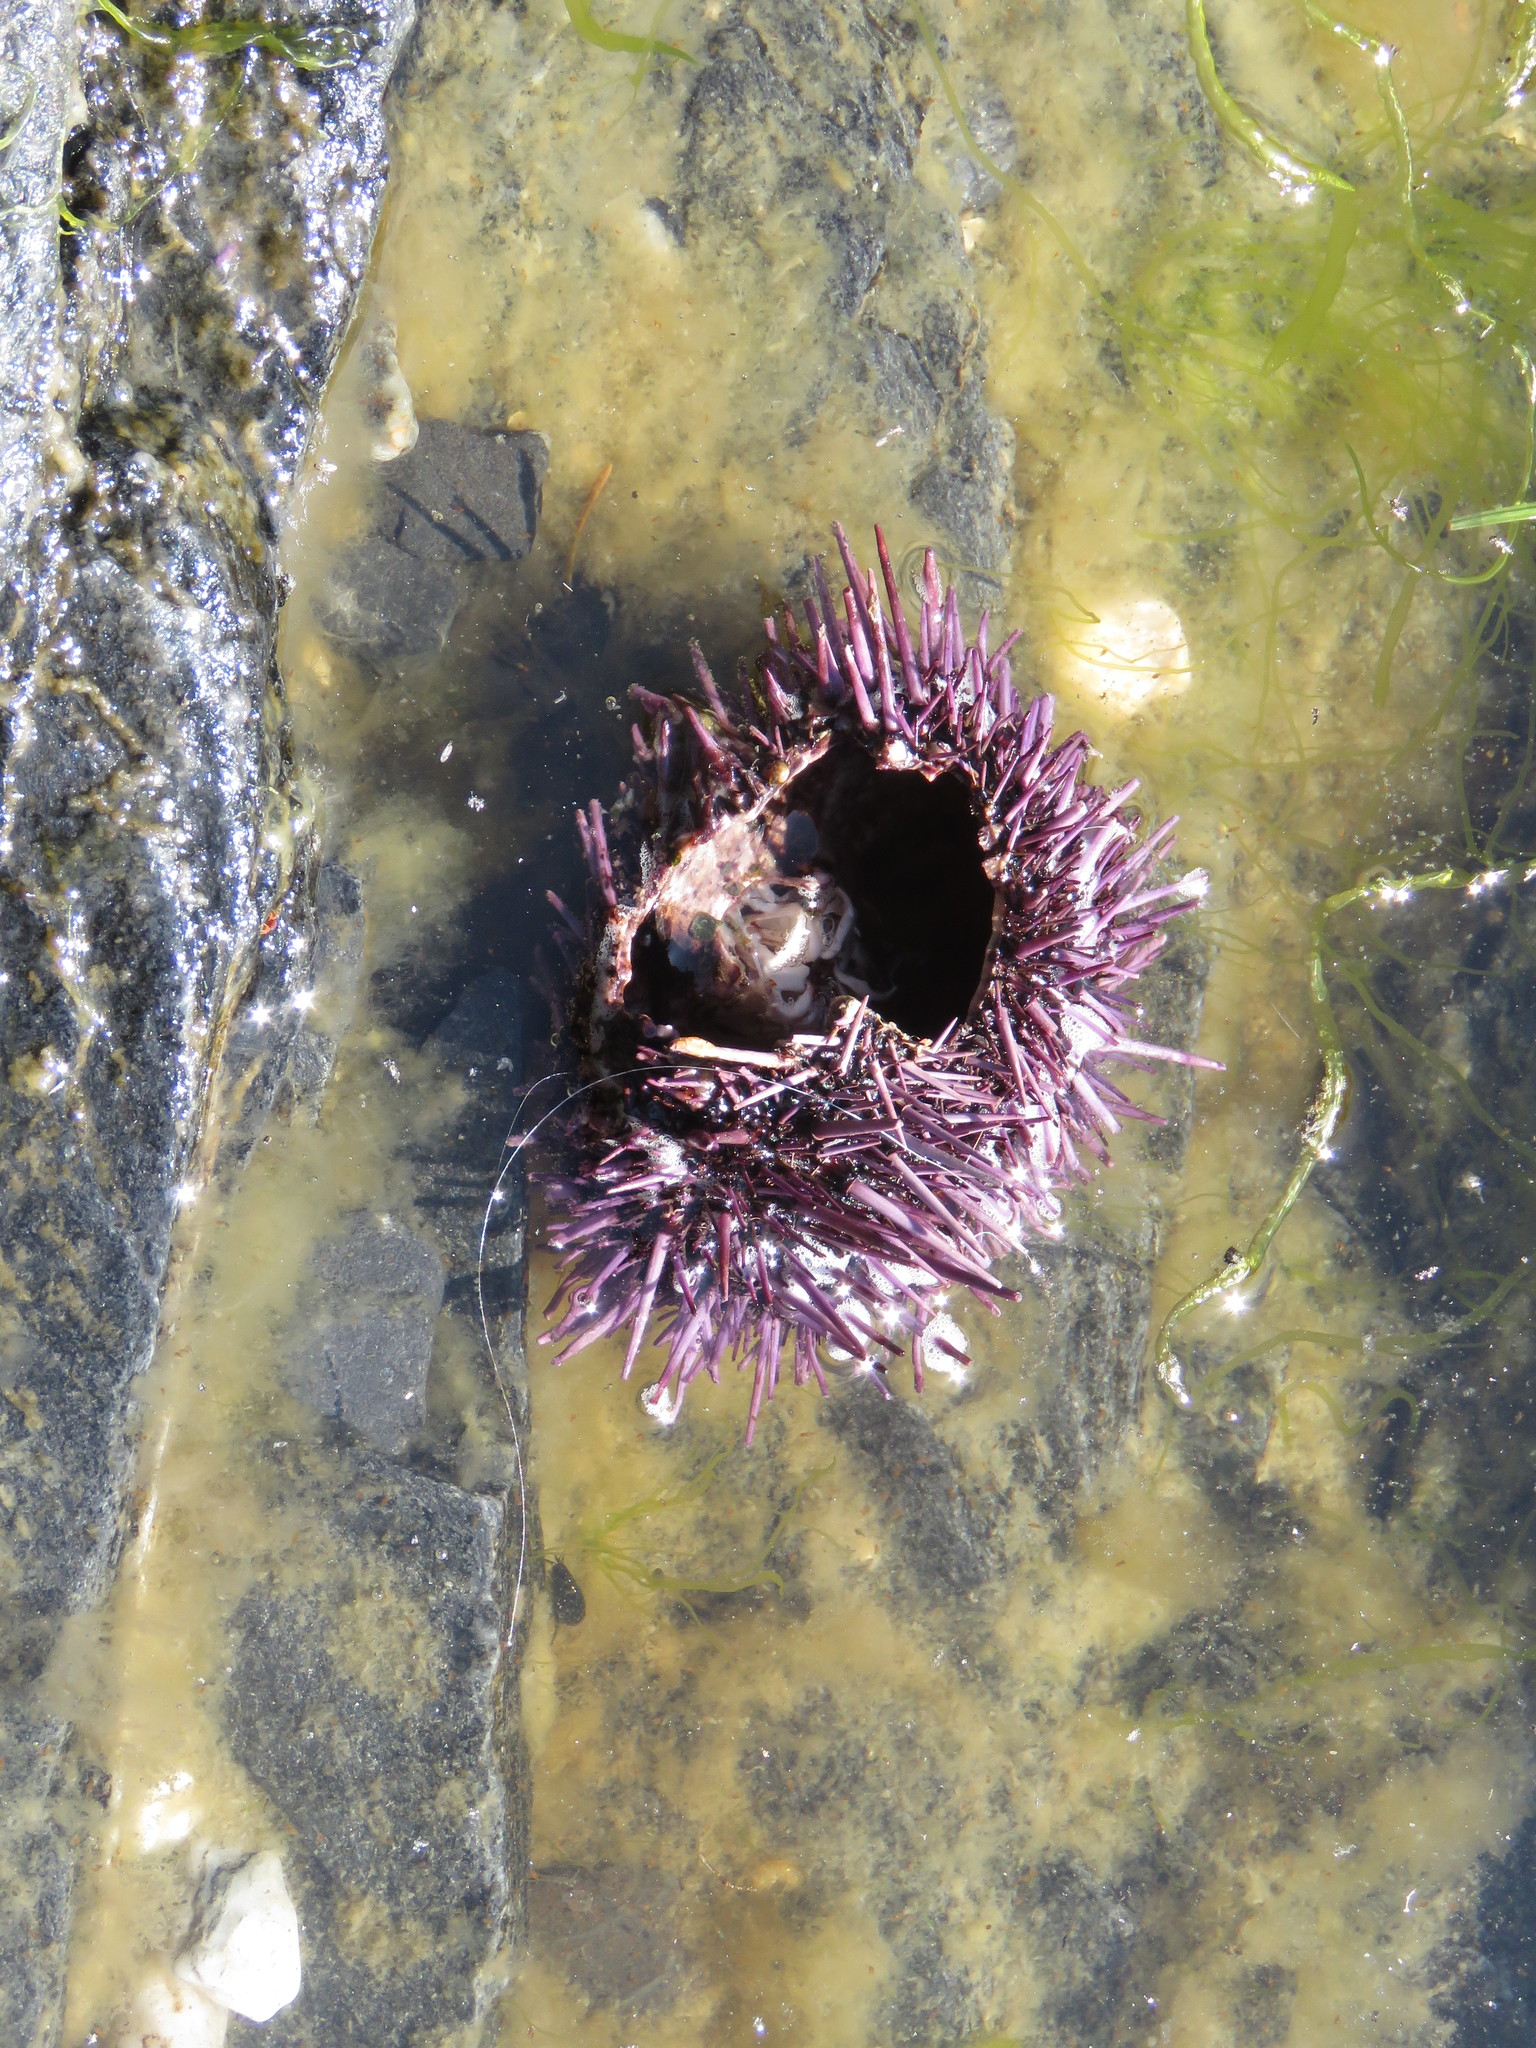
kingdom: Animalia
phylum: Echinodermata
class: Echinoidea
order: Camarodonta
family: Strongylocentrotidae
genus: Strongylocentrotus
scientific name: Strongylocentrotus purpuratus
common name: Purple sea urchin
